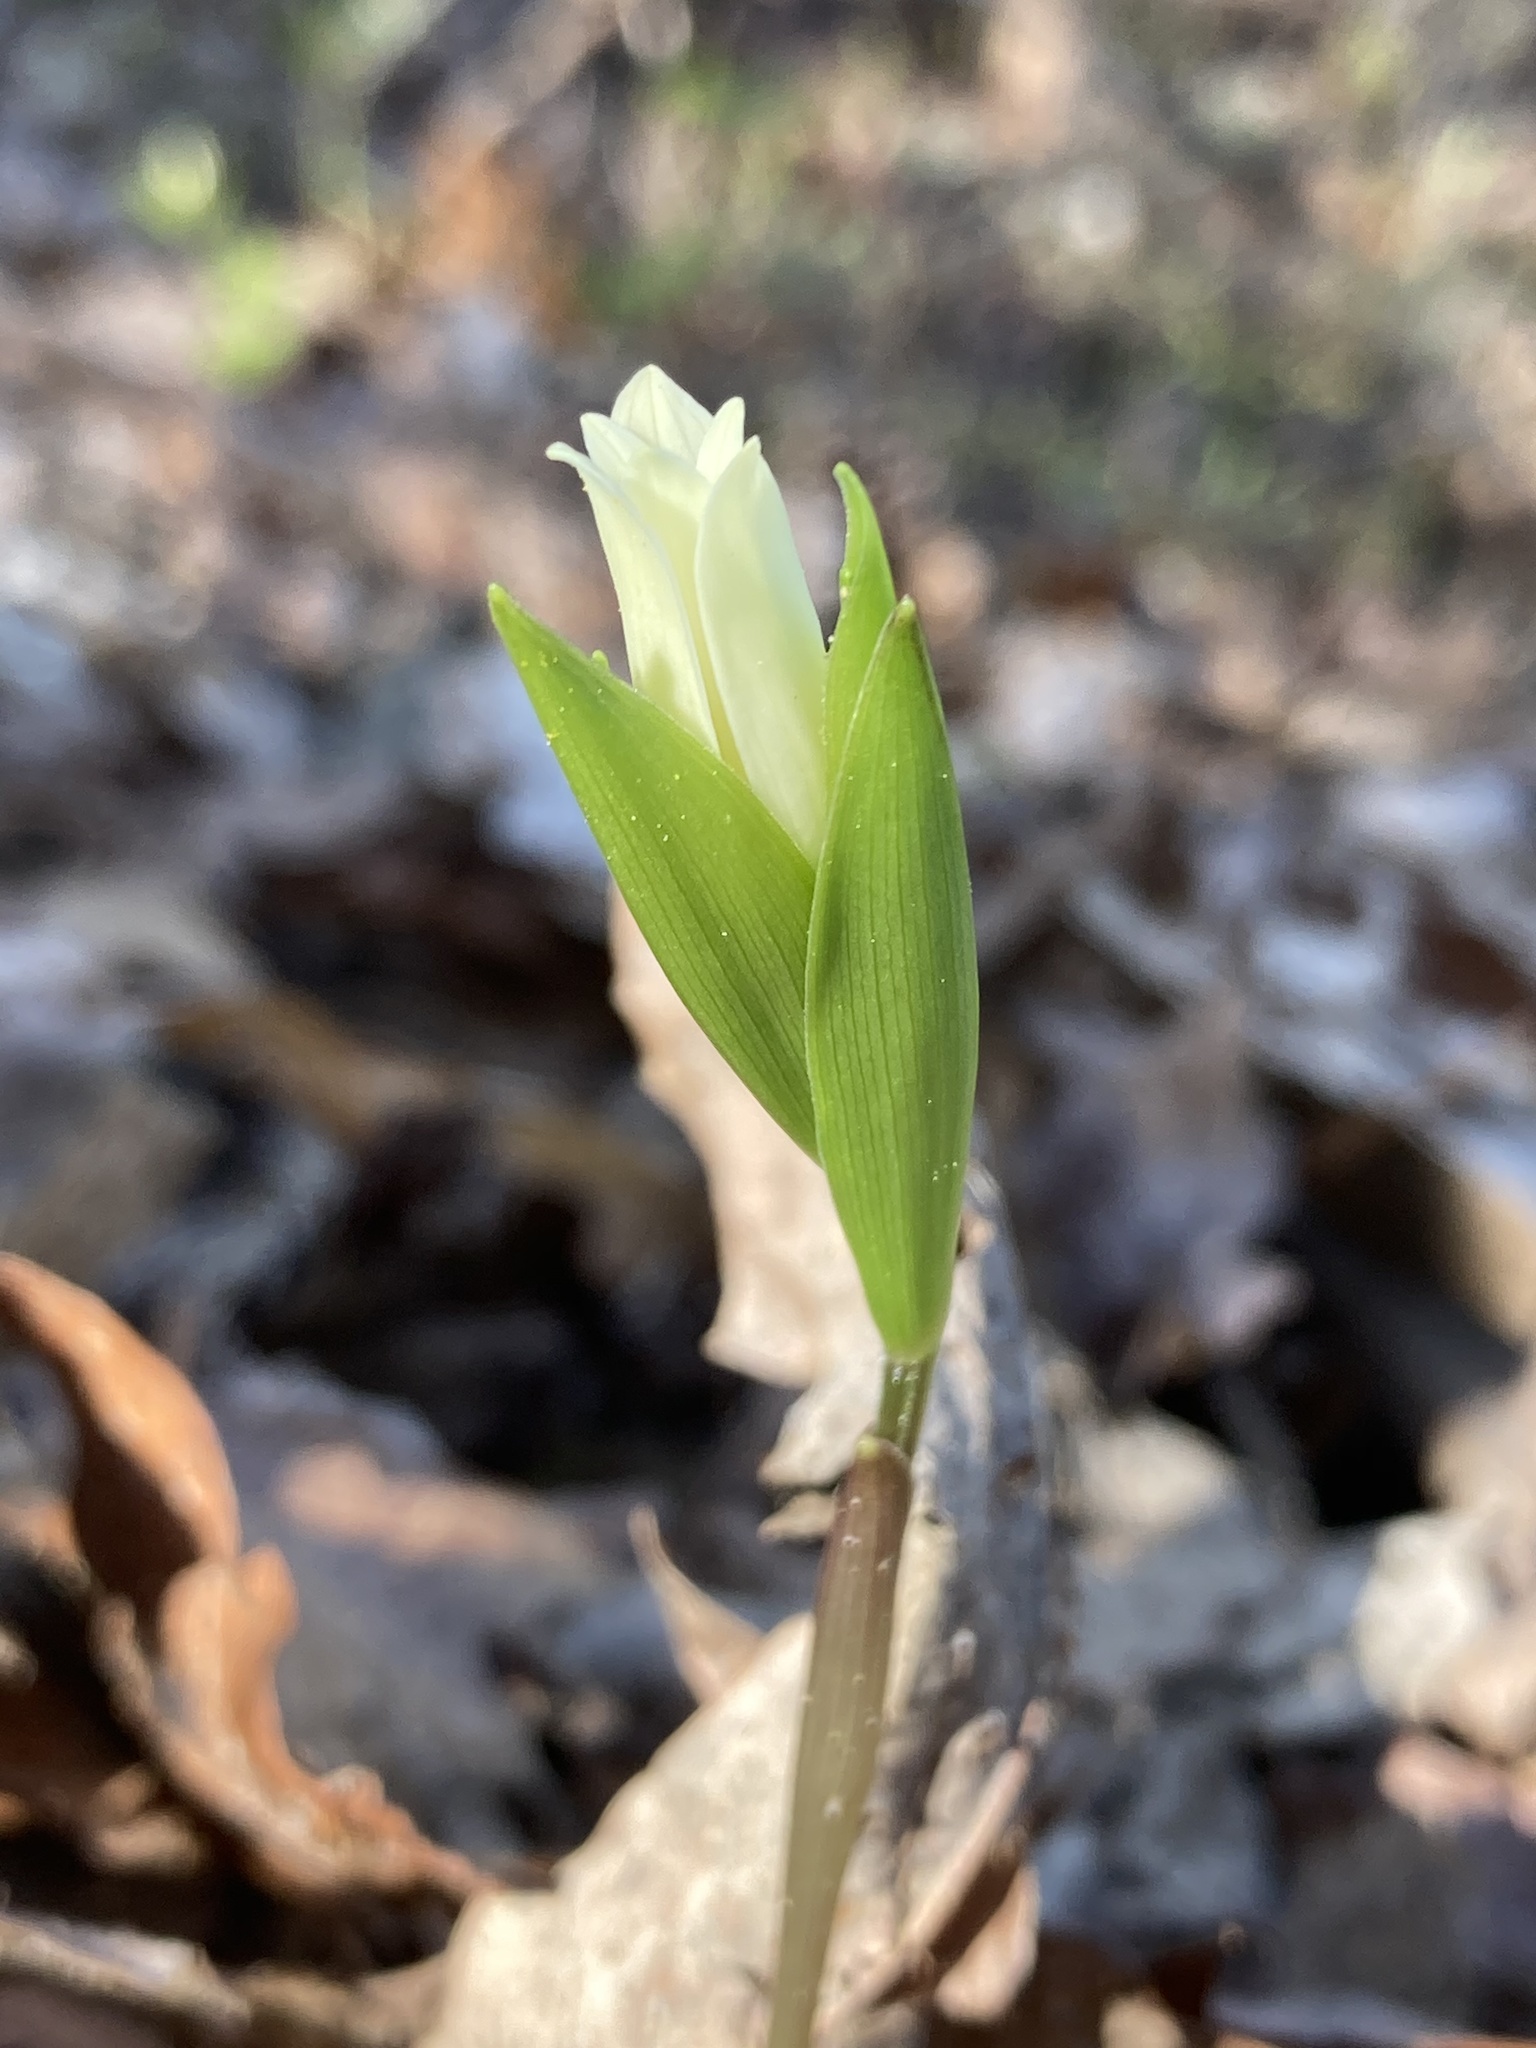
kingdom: Plantae
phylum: Tracheophyta
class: Liliopsida
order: Liliales
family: Colchicaceae
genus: Uvularia
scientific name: Uvularia puberula
